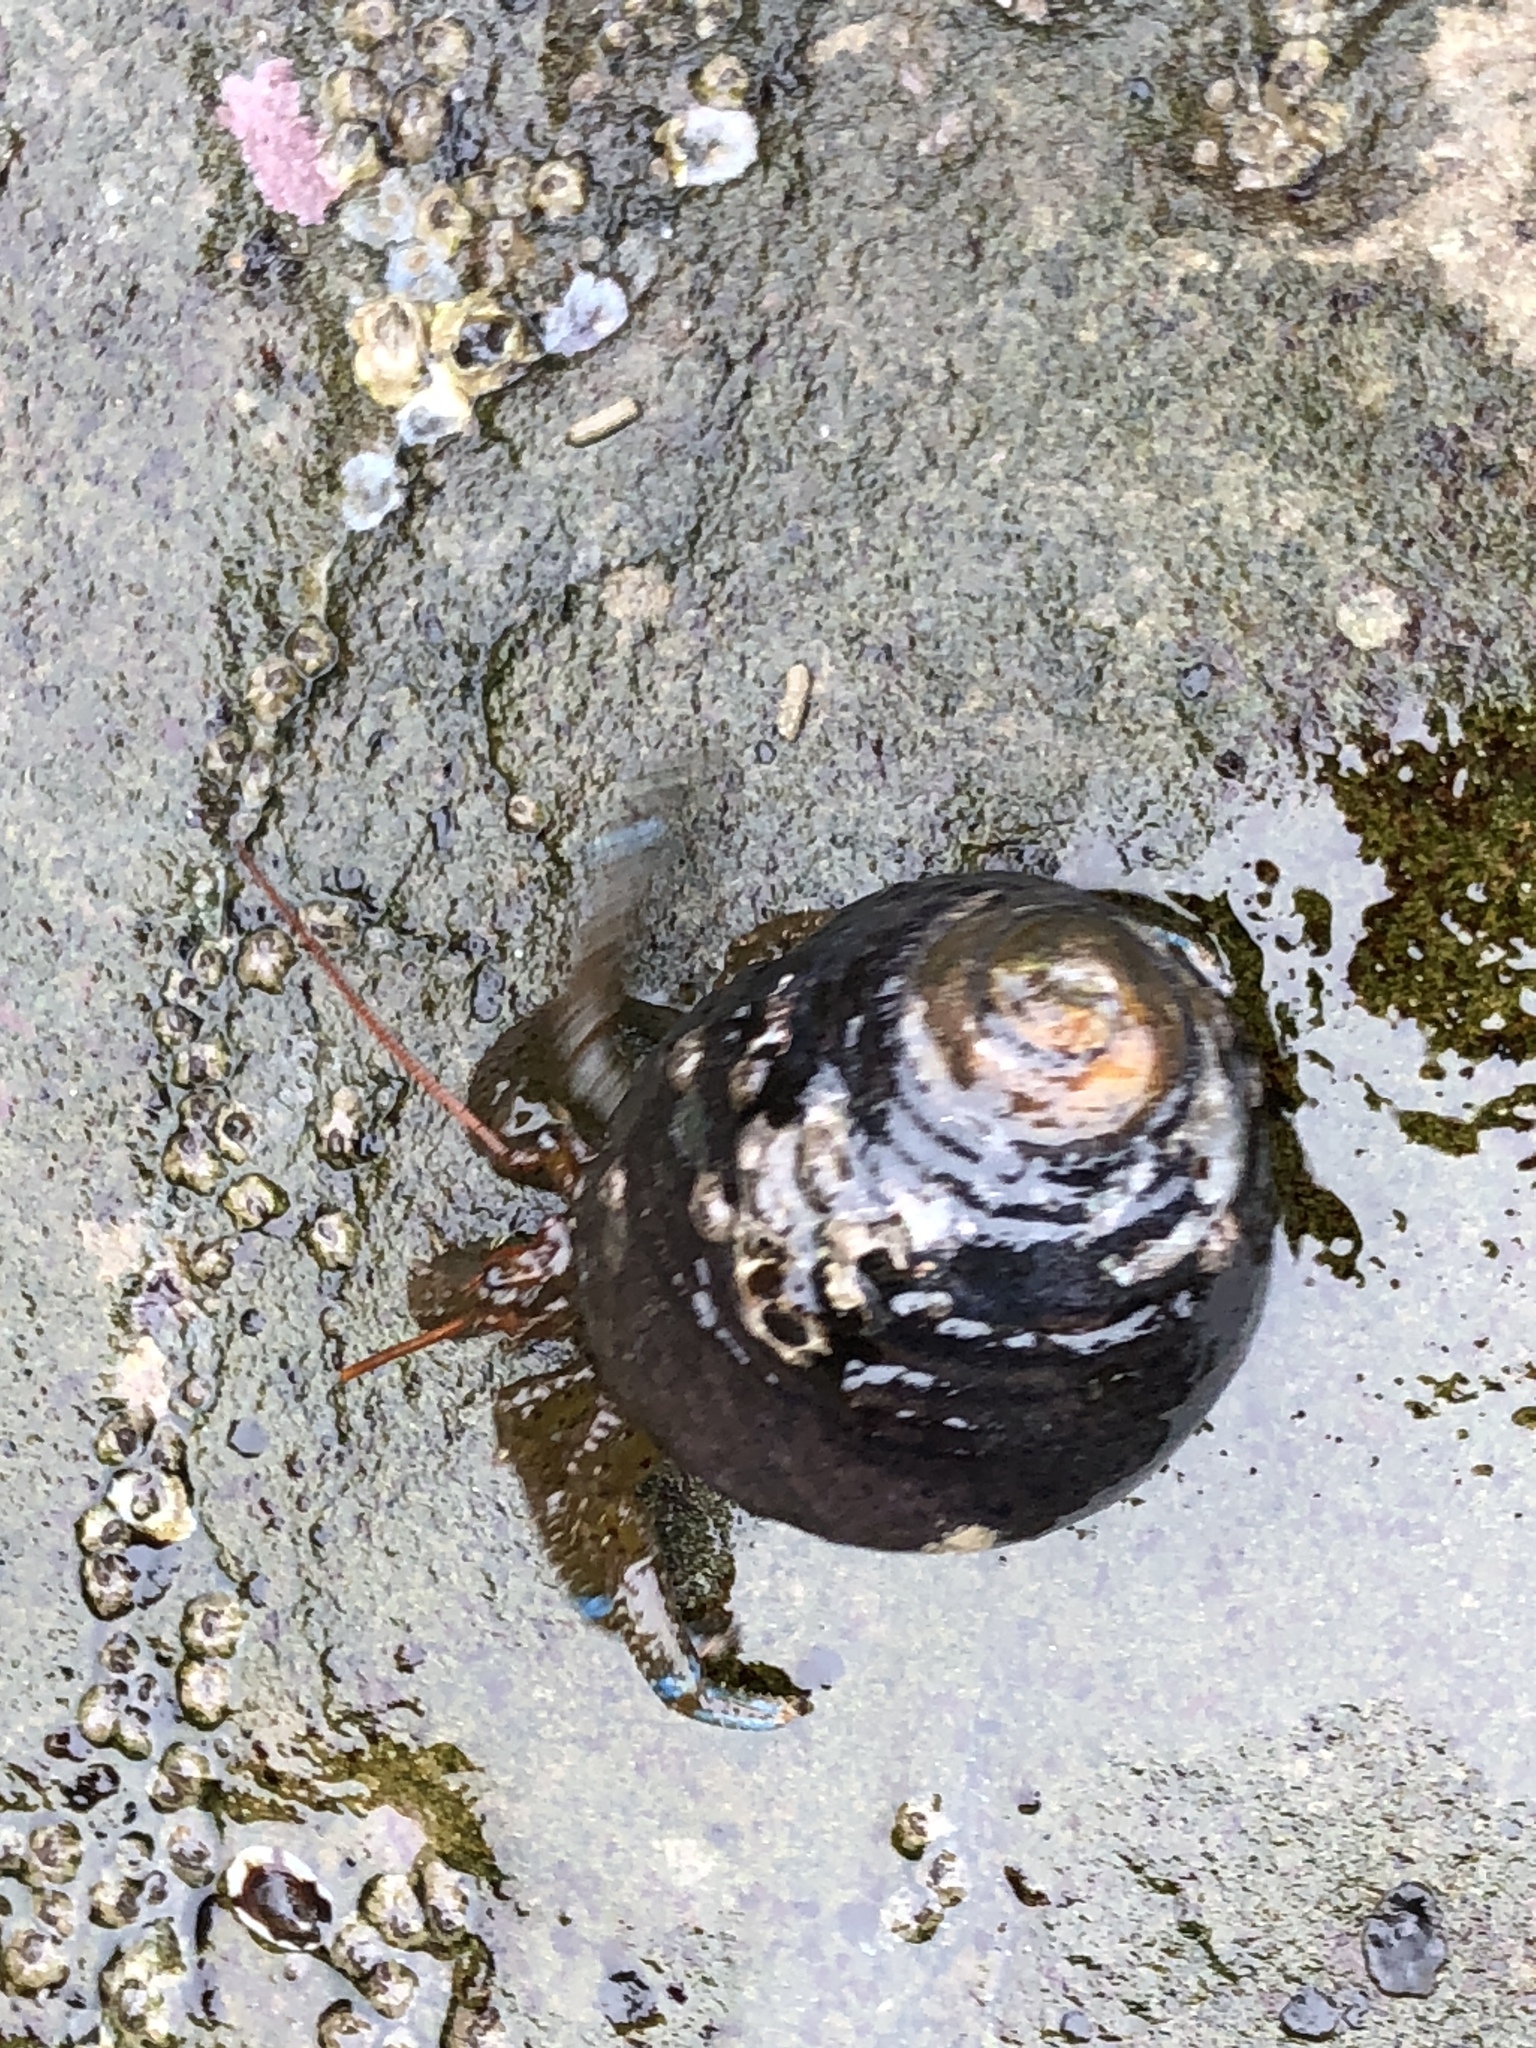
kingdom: Animalia
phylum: Arthropoda
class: Malacostraca
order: Decapoda
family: Paguridae
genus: Pagurus
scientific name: Pagurus samuelis
